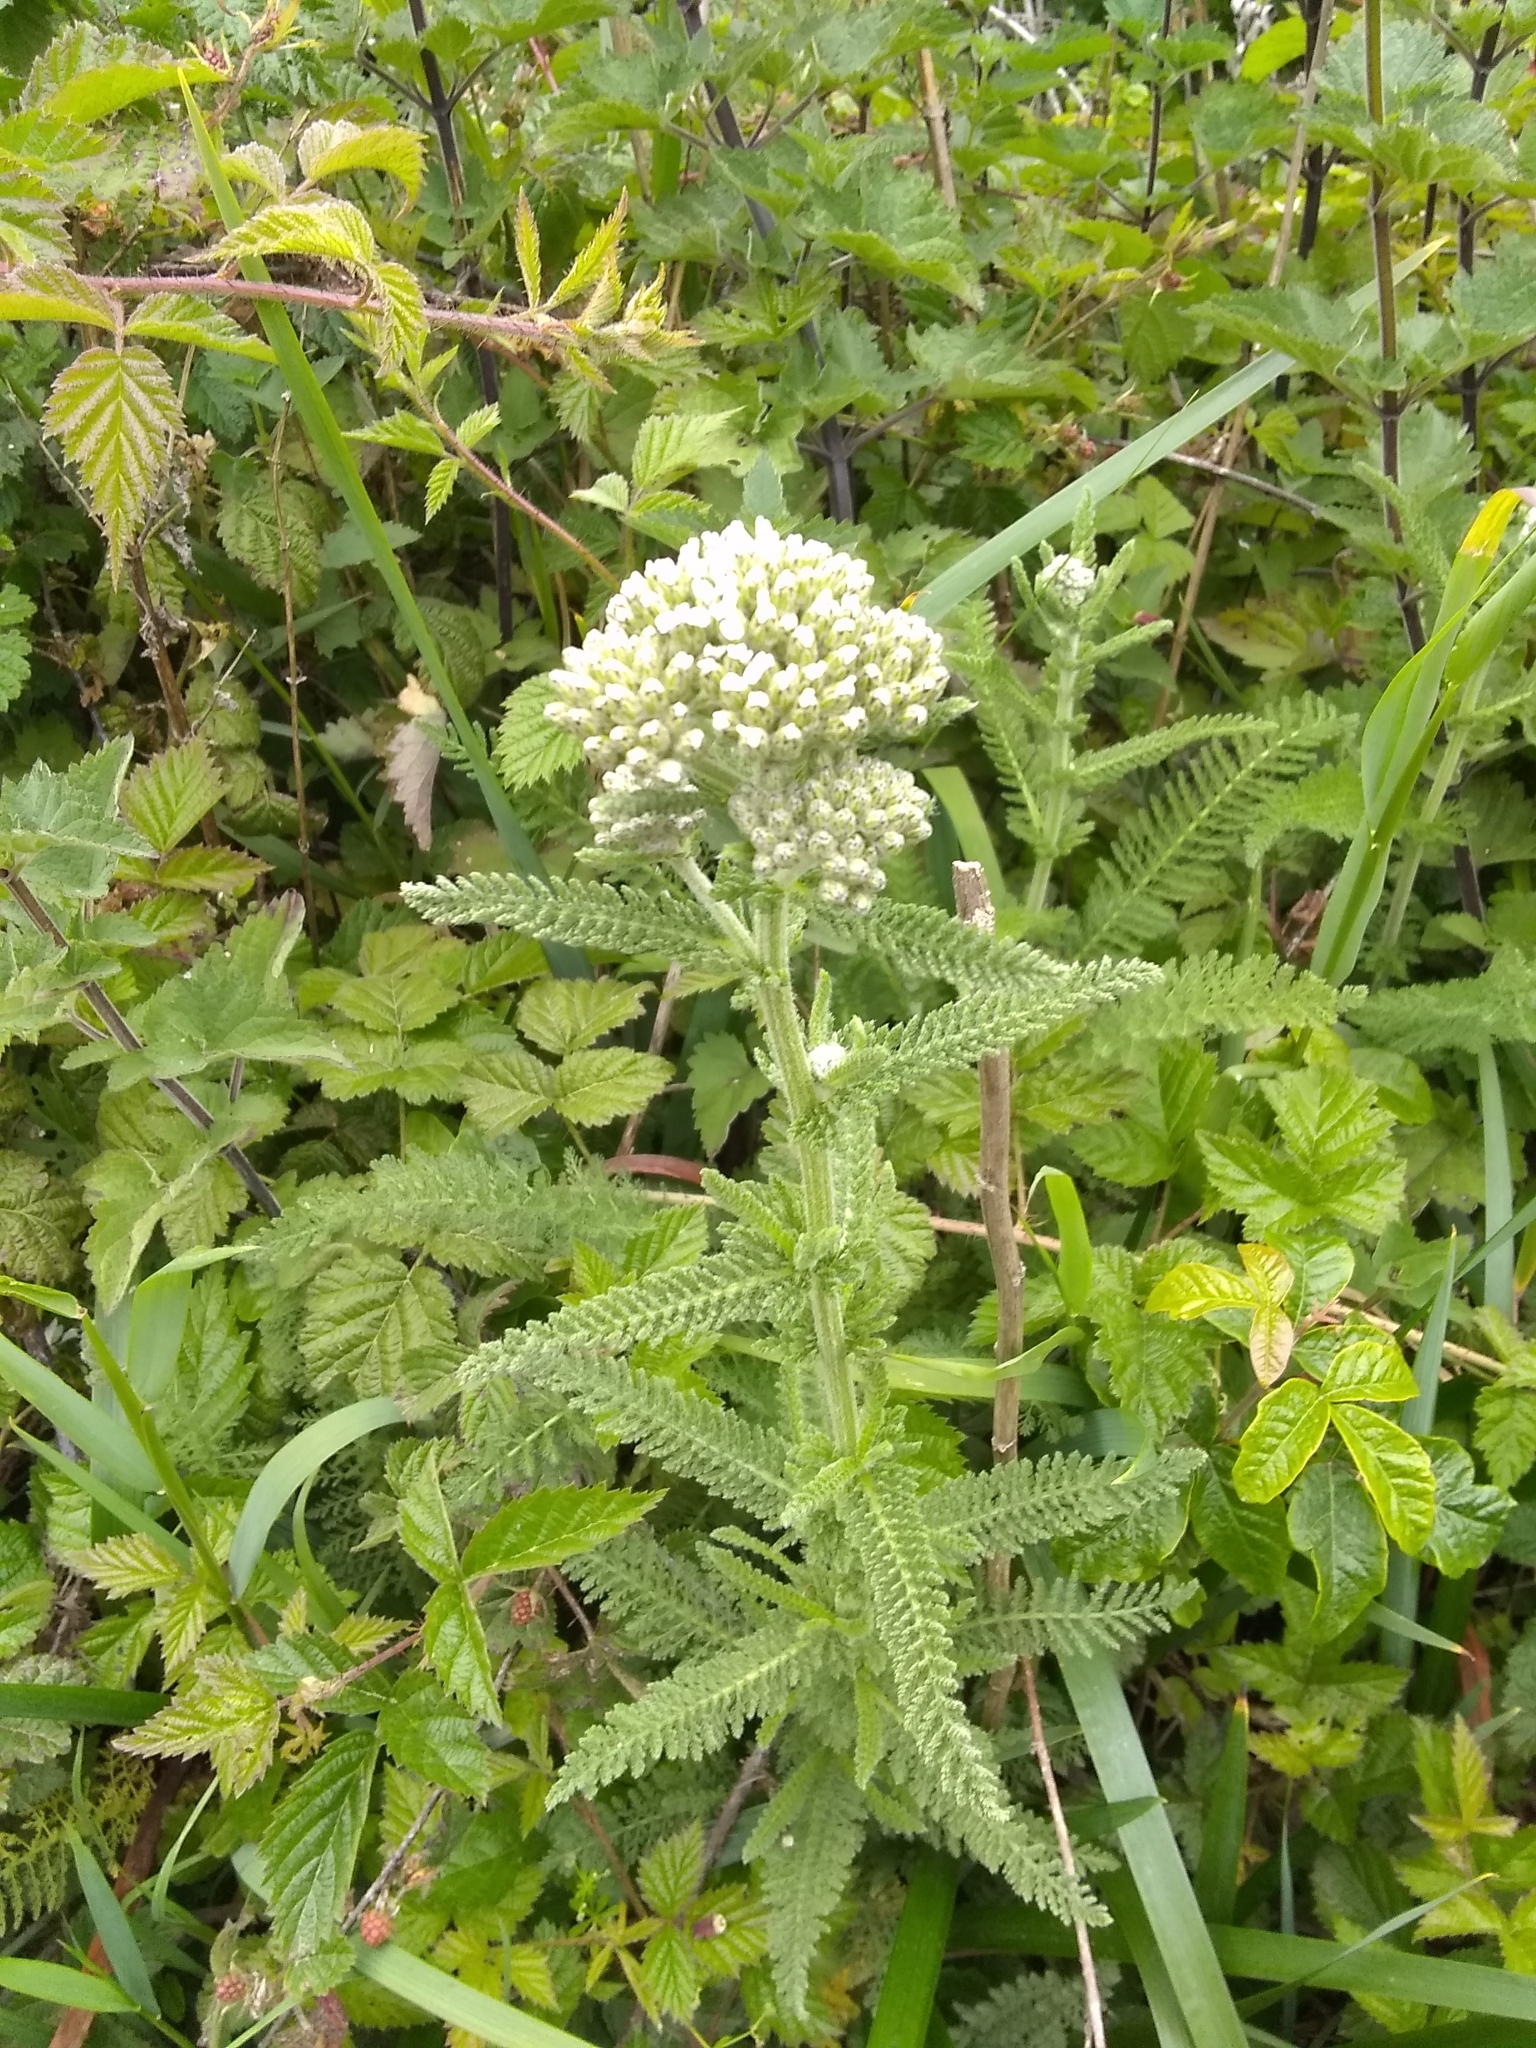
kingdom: Plantae
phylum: Tracheophyta
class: Magnoliopsida
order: Asterales
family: Asteraceae
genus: Achillea
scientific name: Achillea millefolium
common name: Yarrow
